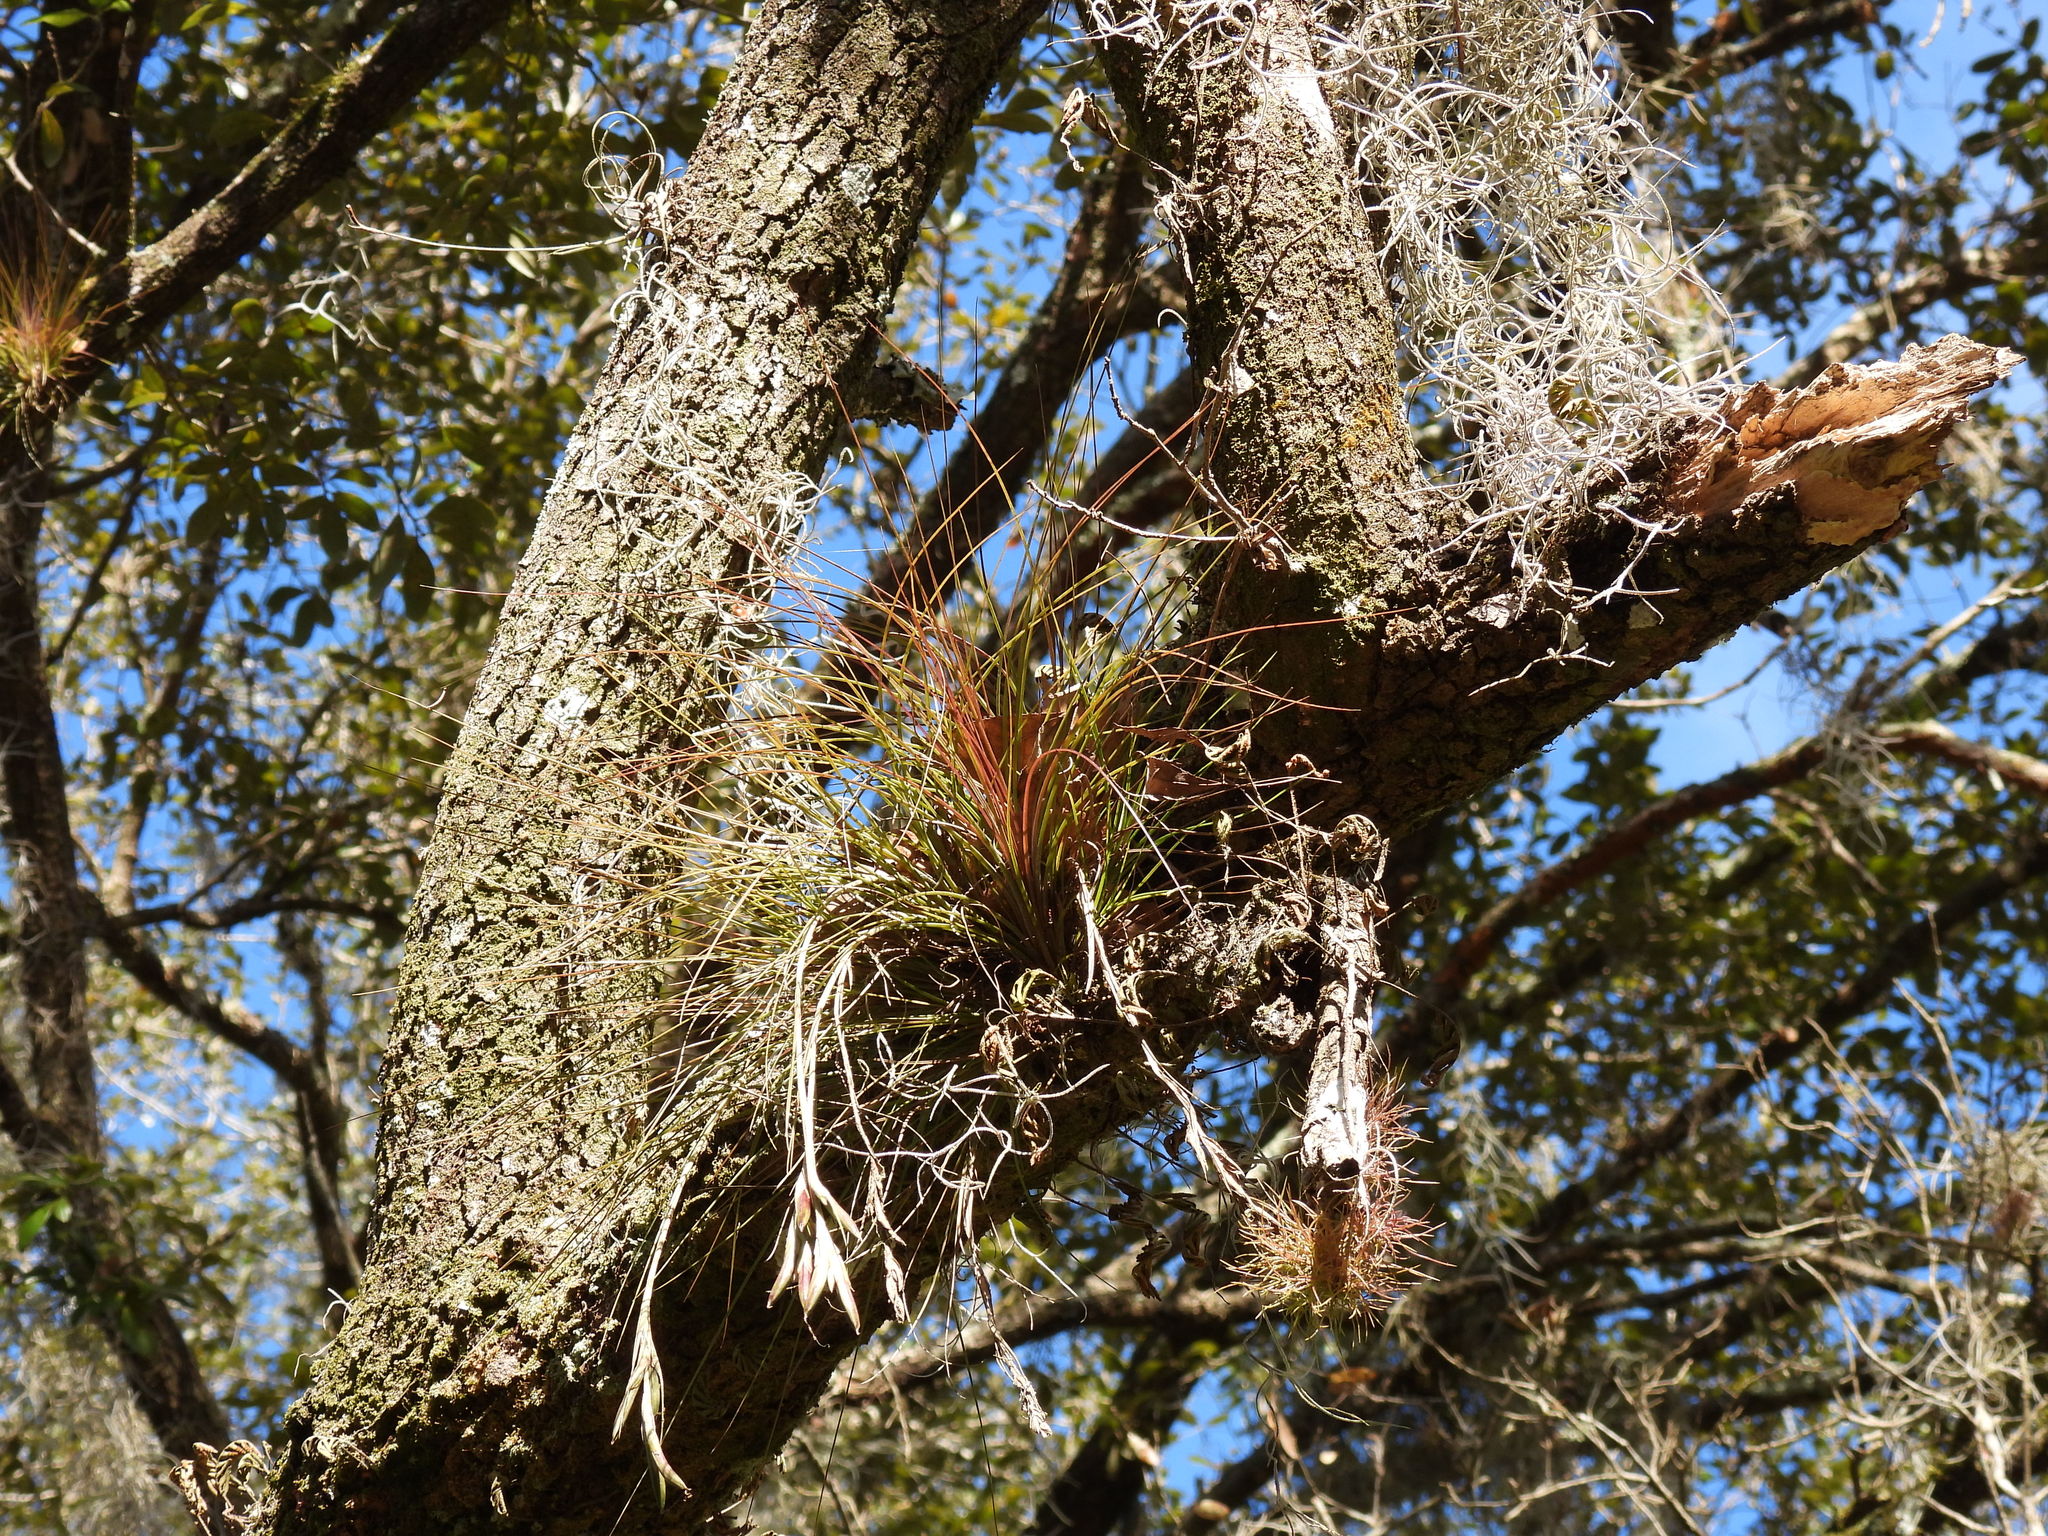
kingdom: Plantae
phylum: Tracheophyta
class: Liliopsida
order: Poales
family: Bromeliaceae
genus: Tillandsia
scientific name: Tillandsia setacea
